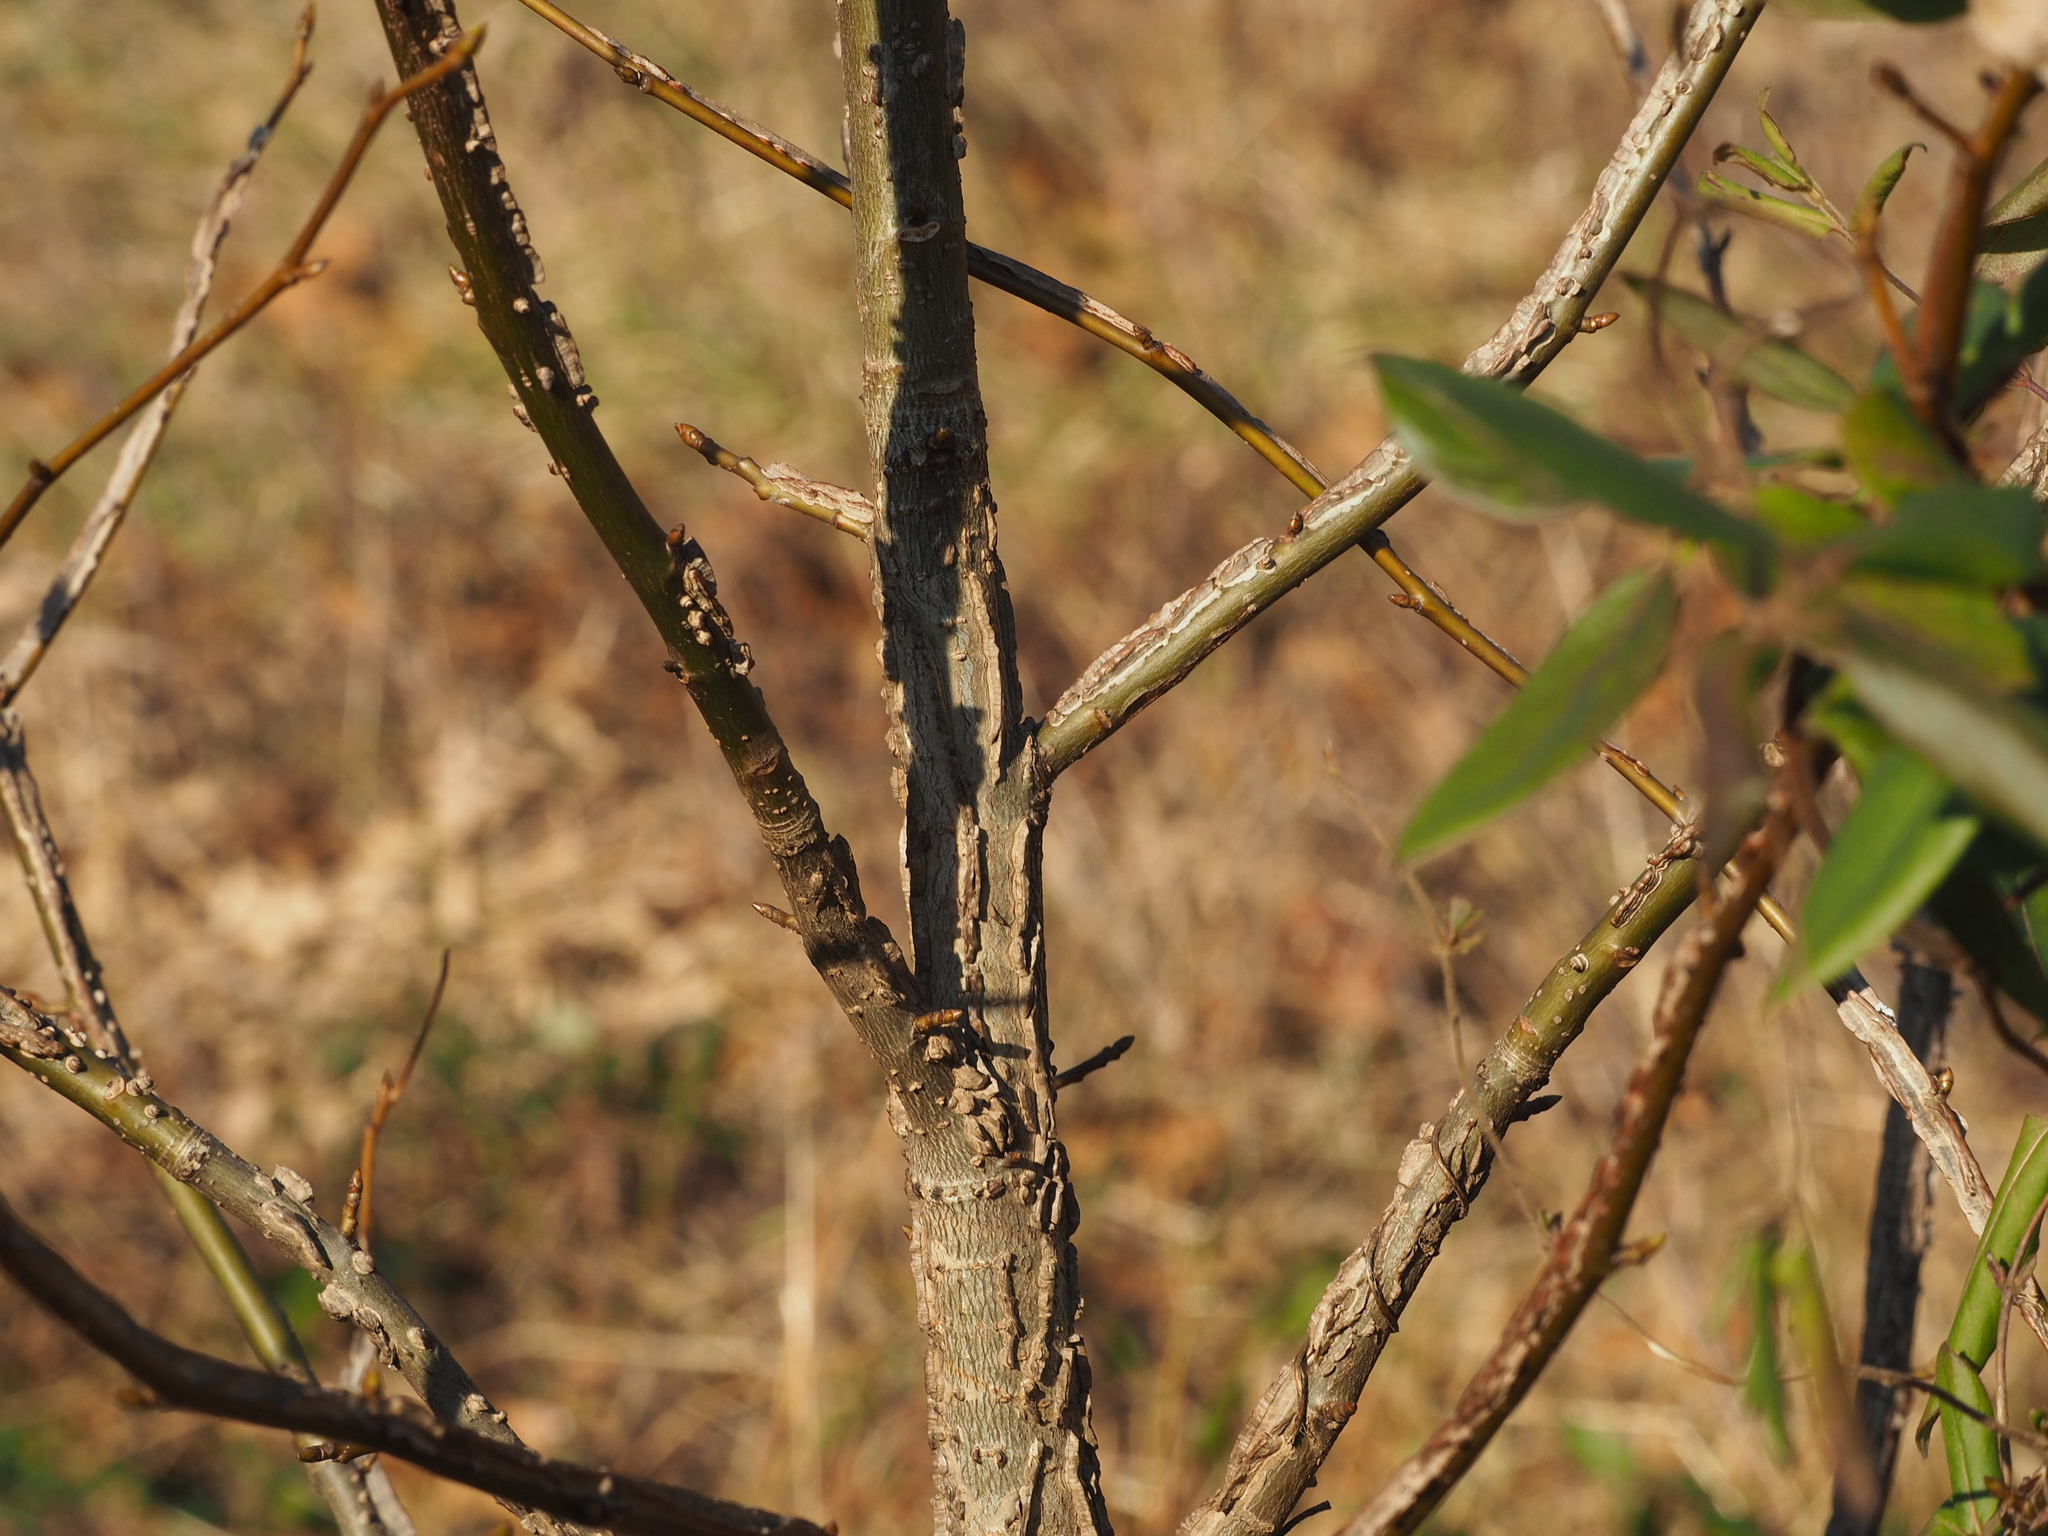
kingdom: Plantae
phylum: Tracheophyta
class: Magnoliopsida
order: Saxifragales
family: Altingiaceae
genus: Liquidambar
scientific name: Liquidambar styraciflua
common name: Sweet gum
